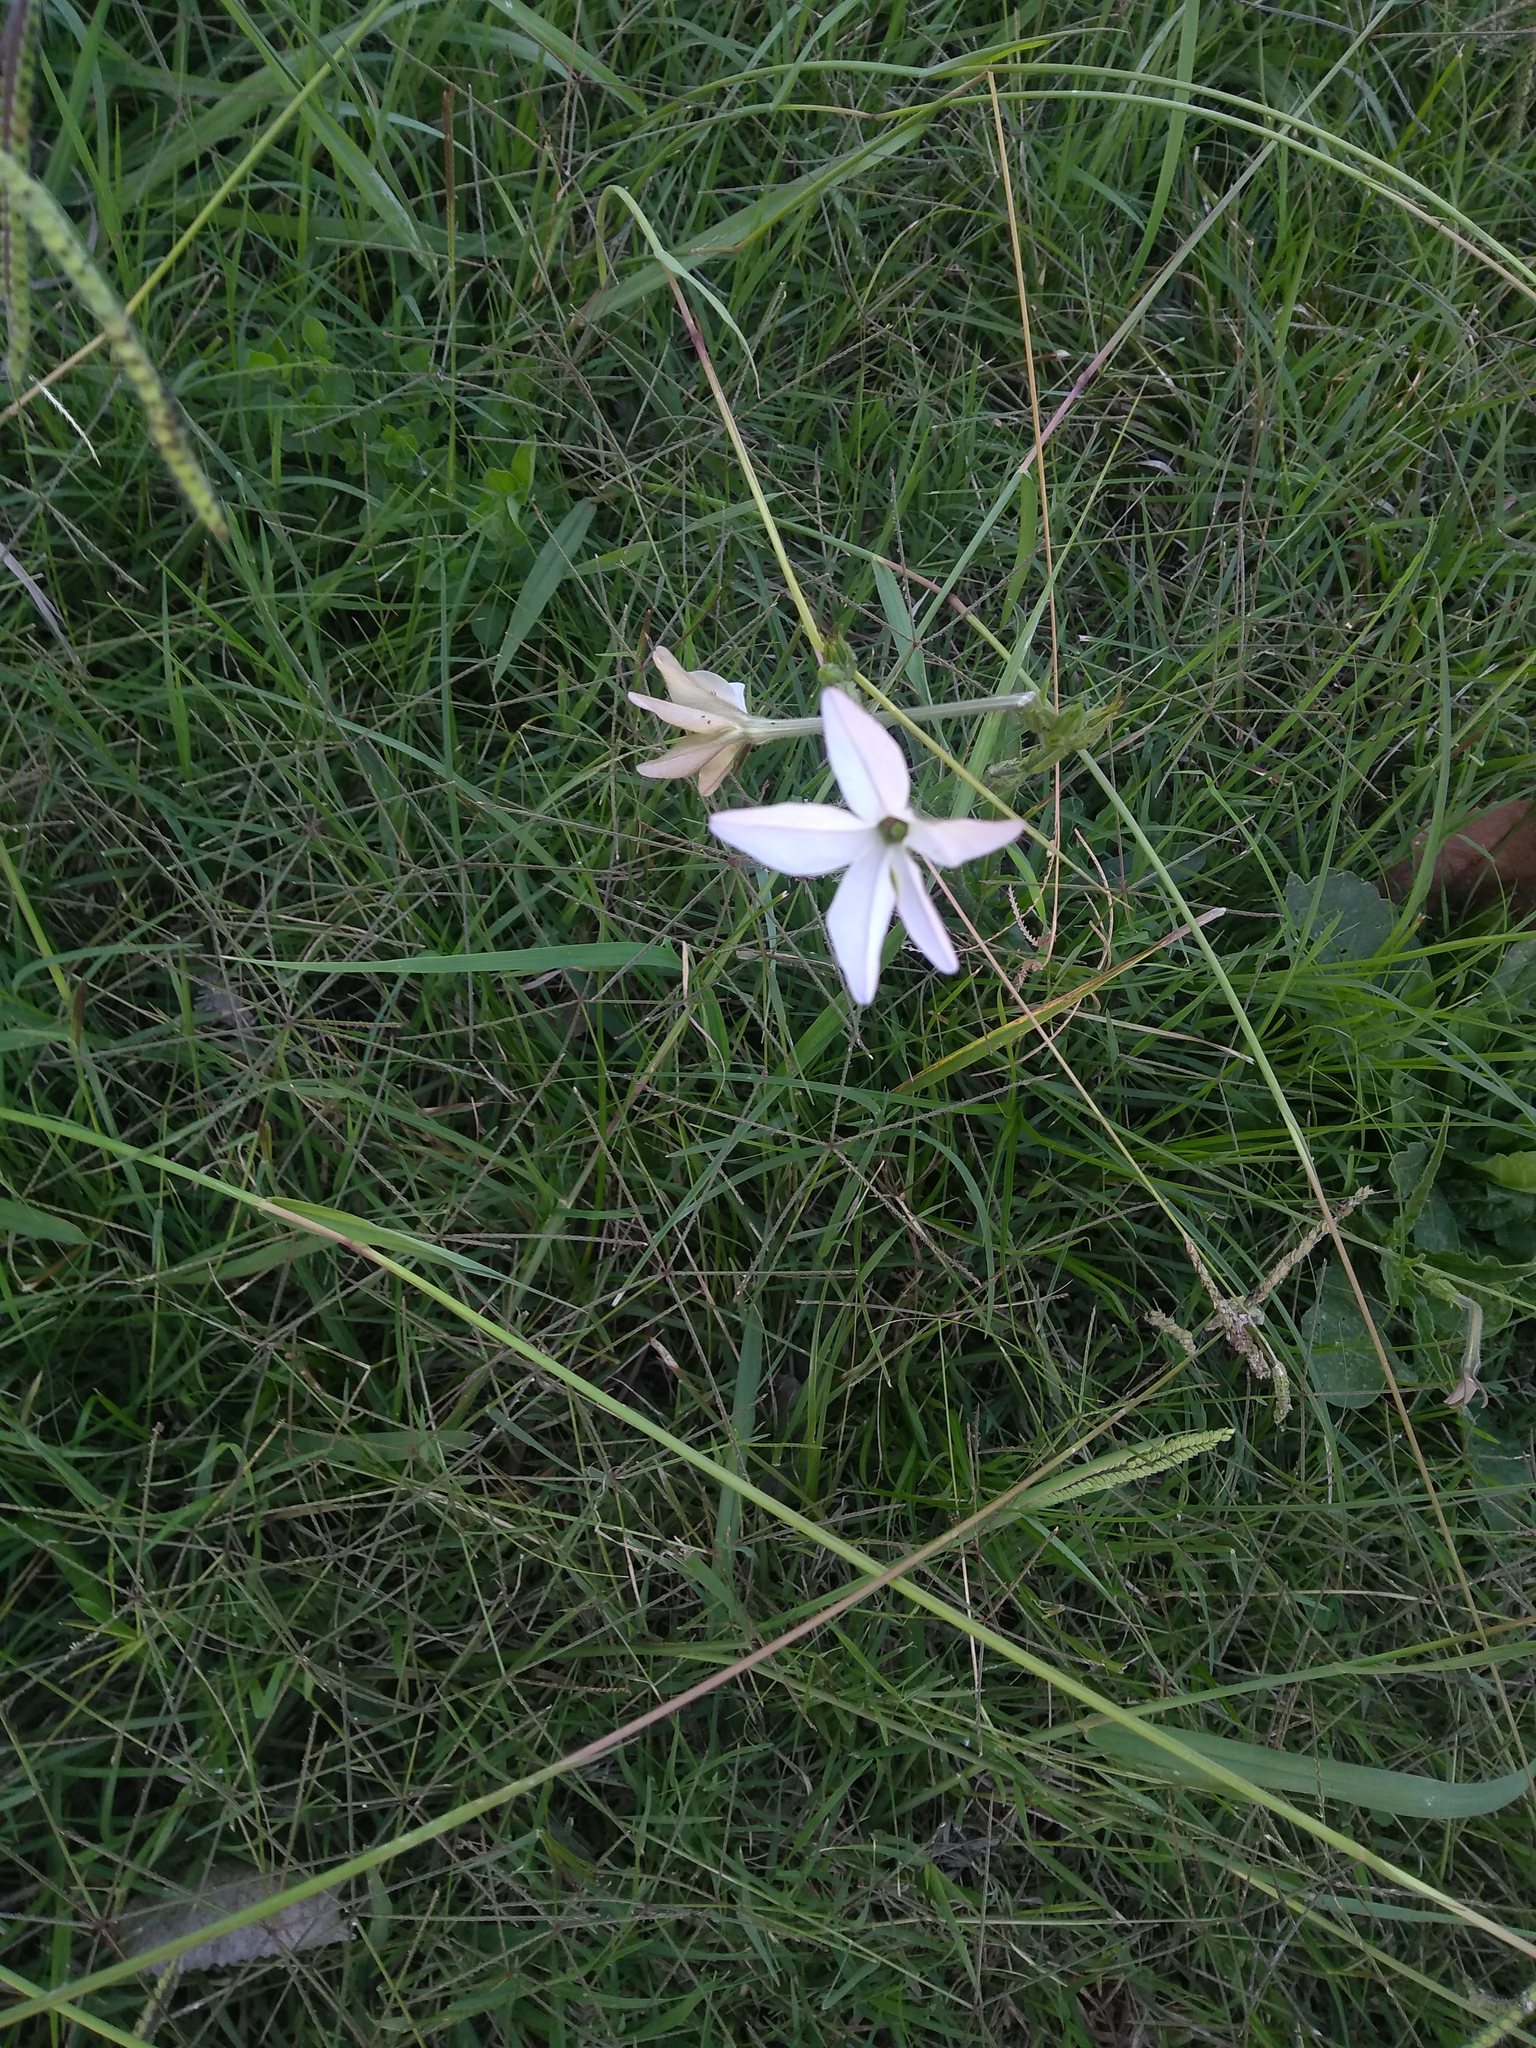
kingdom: Plantae
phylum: Tracheophyta
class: Magnoliopsida
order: Solanales
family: Solanaceae
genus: Nicotiana
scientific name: Nicotiana longiflora
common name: Long-flowered tobacco
